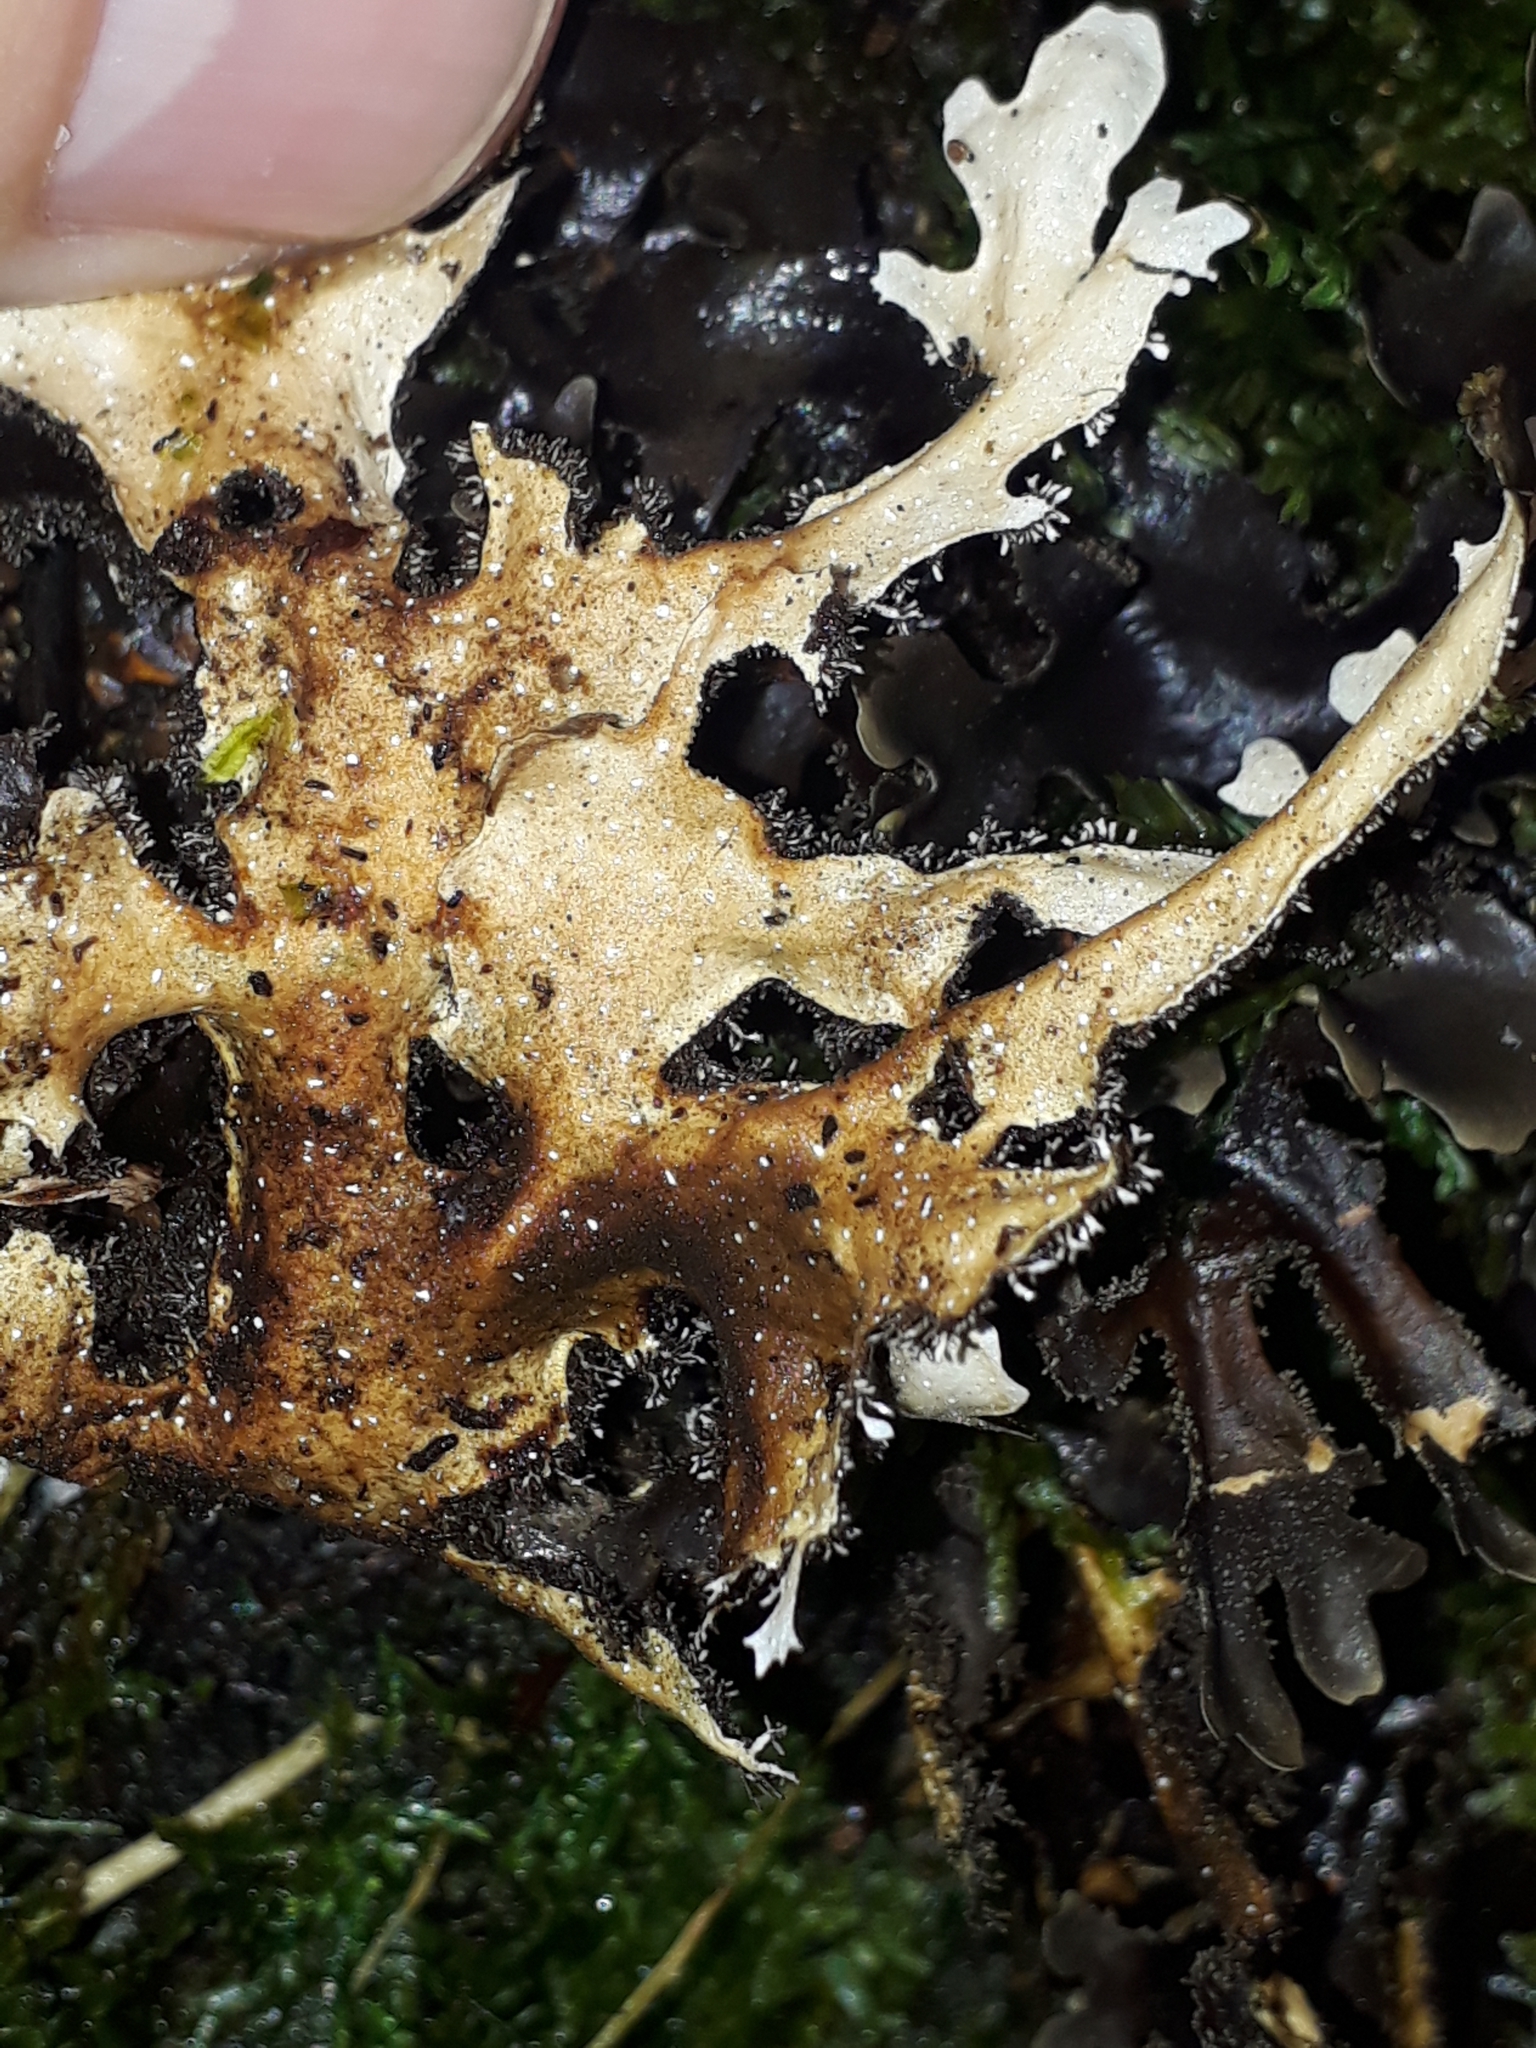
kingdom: Fungi
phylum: Ascomycota
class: Lecanoromycetes
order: Peltigerales
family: Lobariaceae
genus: Pseudocyphellaria
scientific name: Pseudocyphellaria dissimilis
